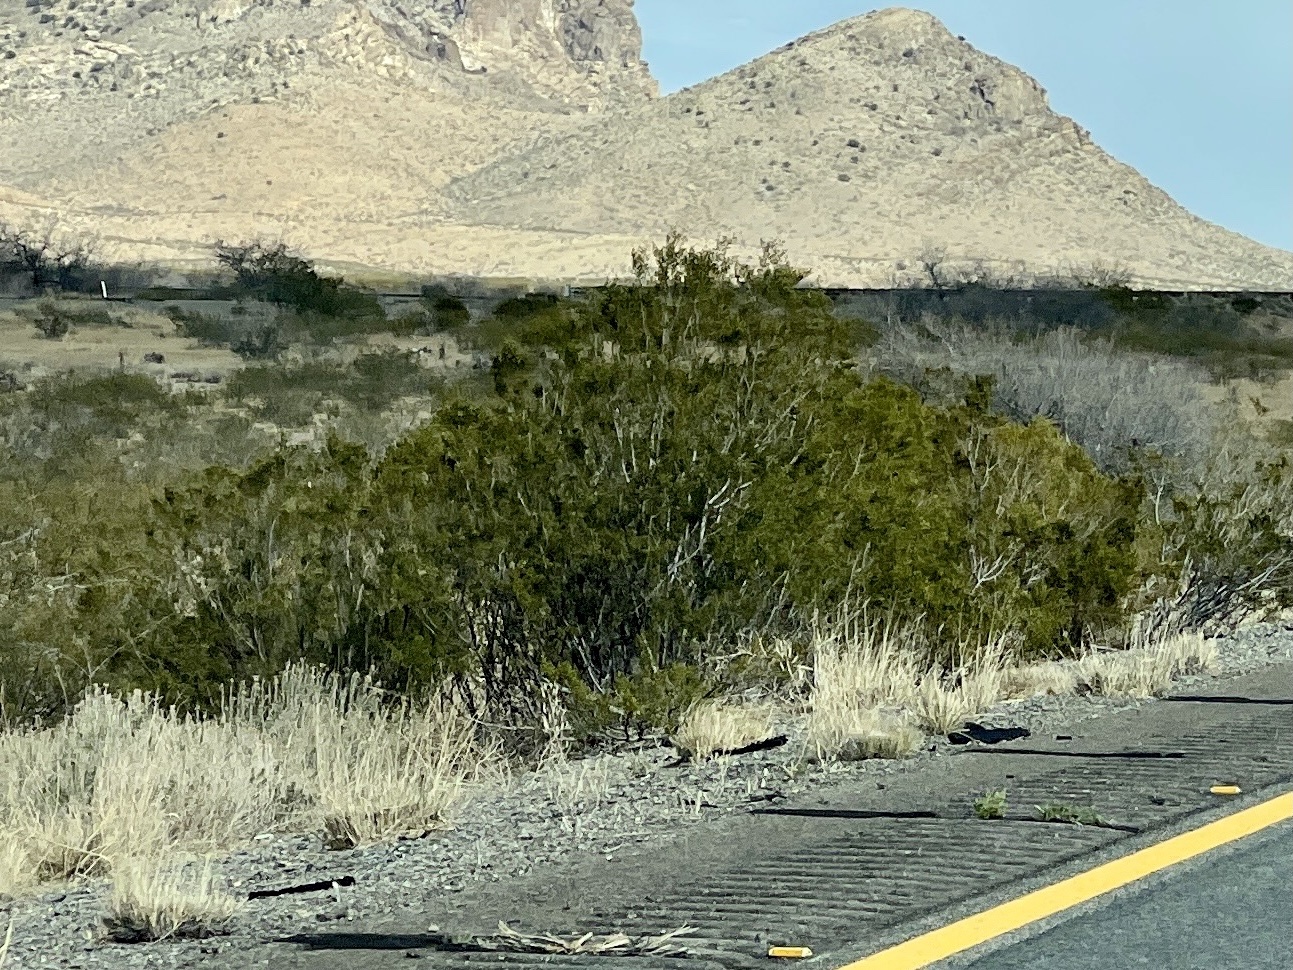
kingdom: Plantae
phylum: Tracheophyta
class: Magnoliopsida
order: Zygophyllales
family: Zygophyllaceae
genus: Larrea
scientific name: Larrea tridentata
